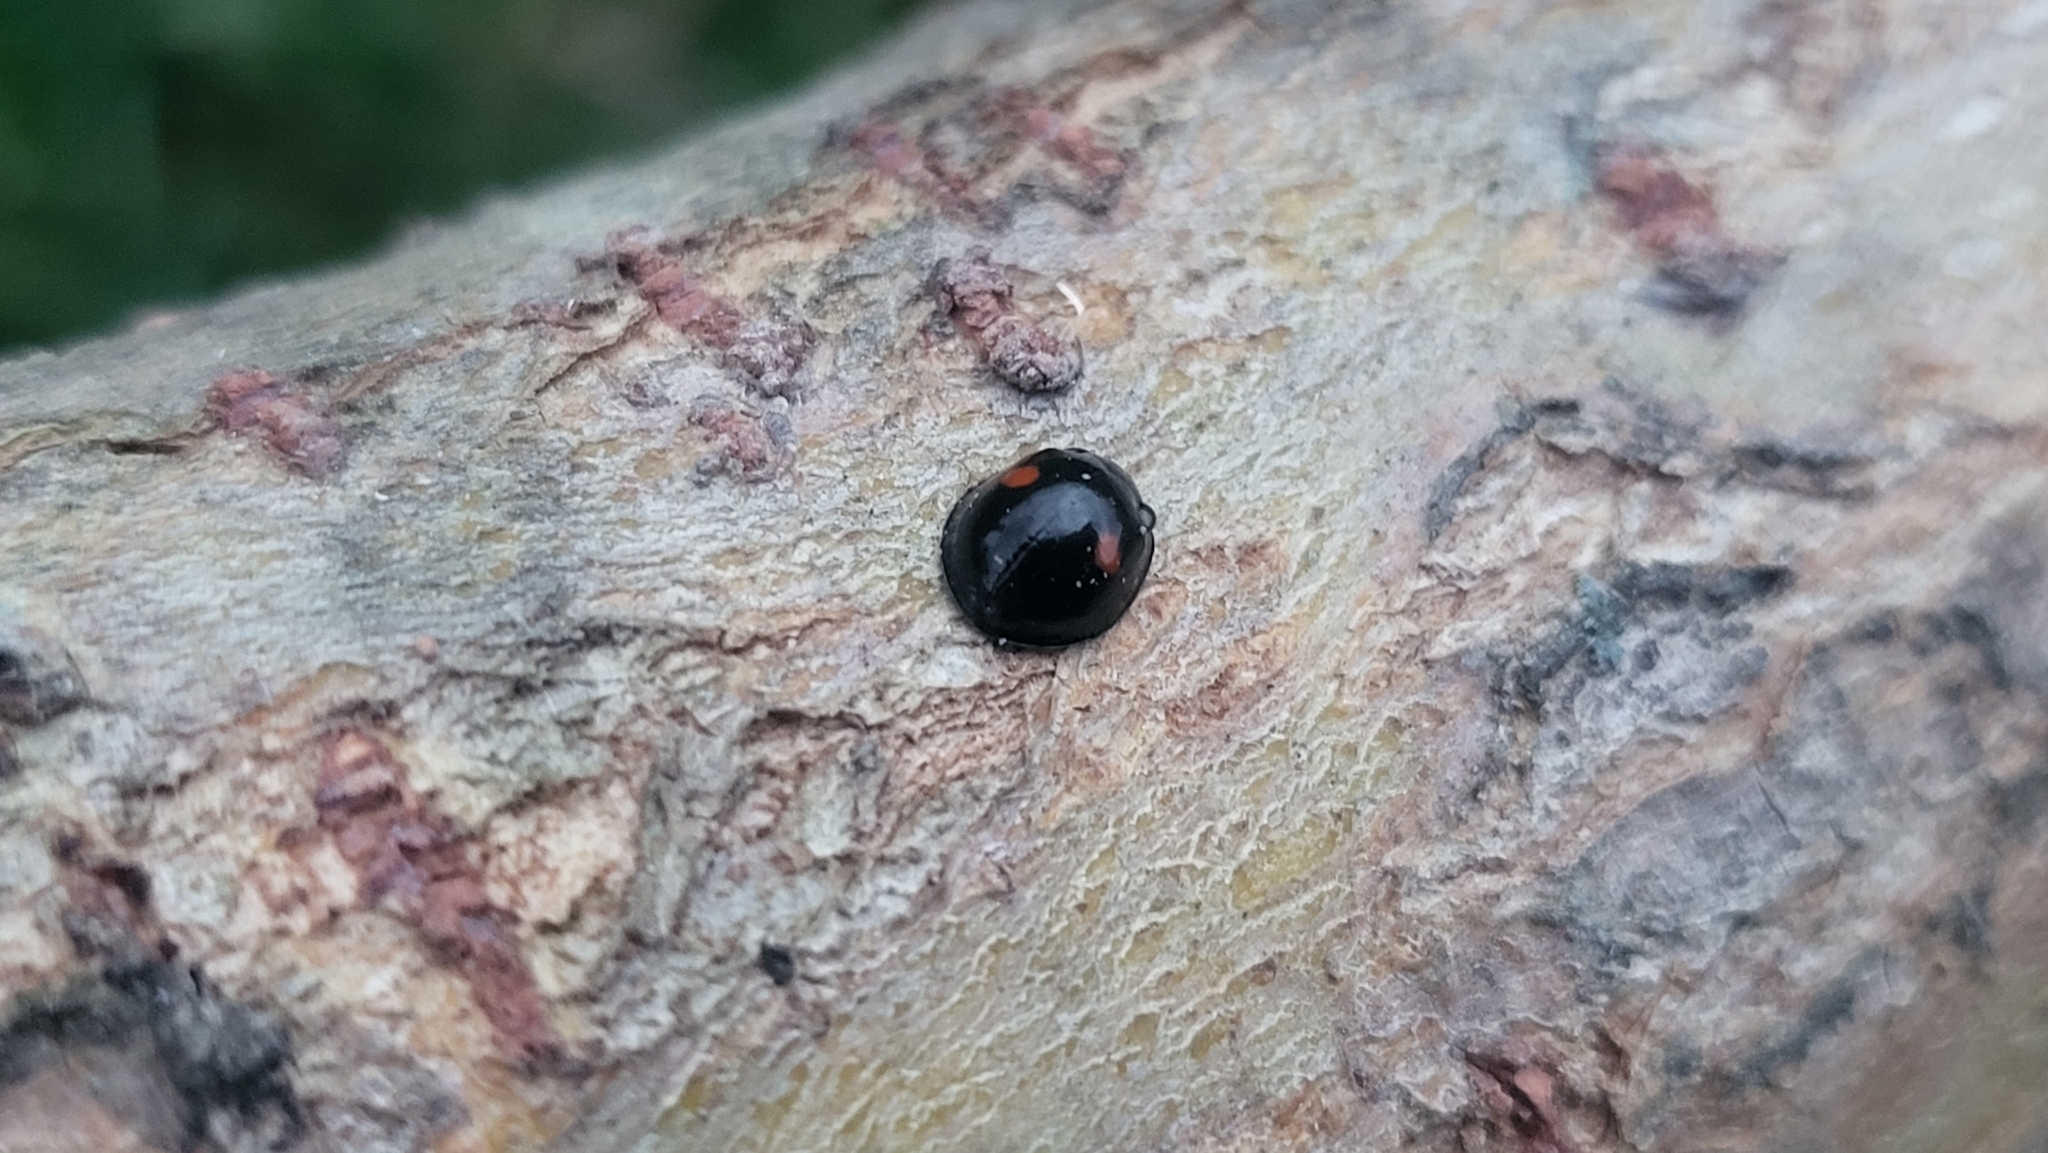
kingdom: Animalia
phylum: Arthropoda
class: Insecta
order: Coleoptera
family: Coccinellidae
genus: Chilocorus
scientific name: Chilocorus stigma
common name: Twicestabbed lady beetle
